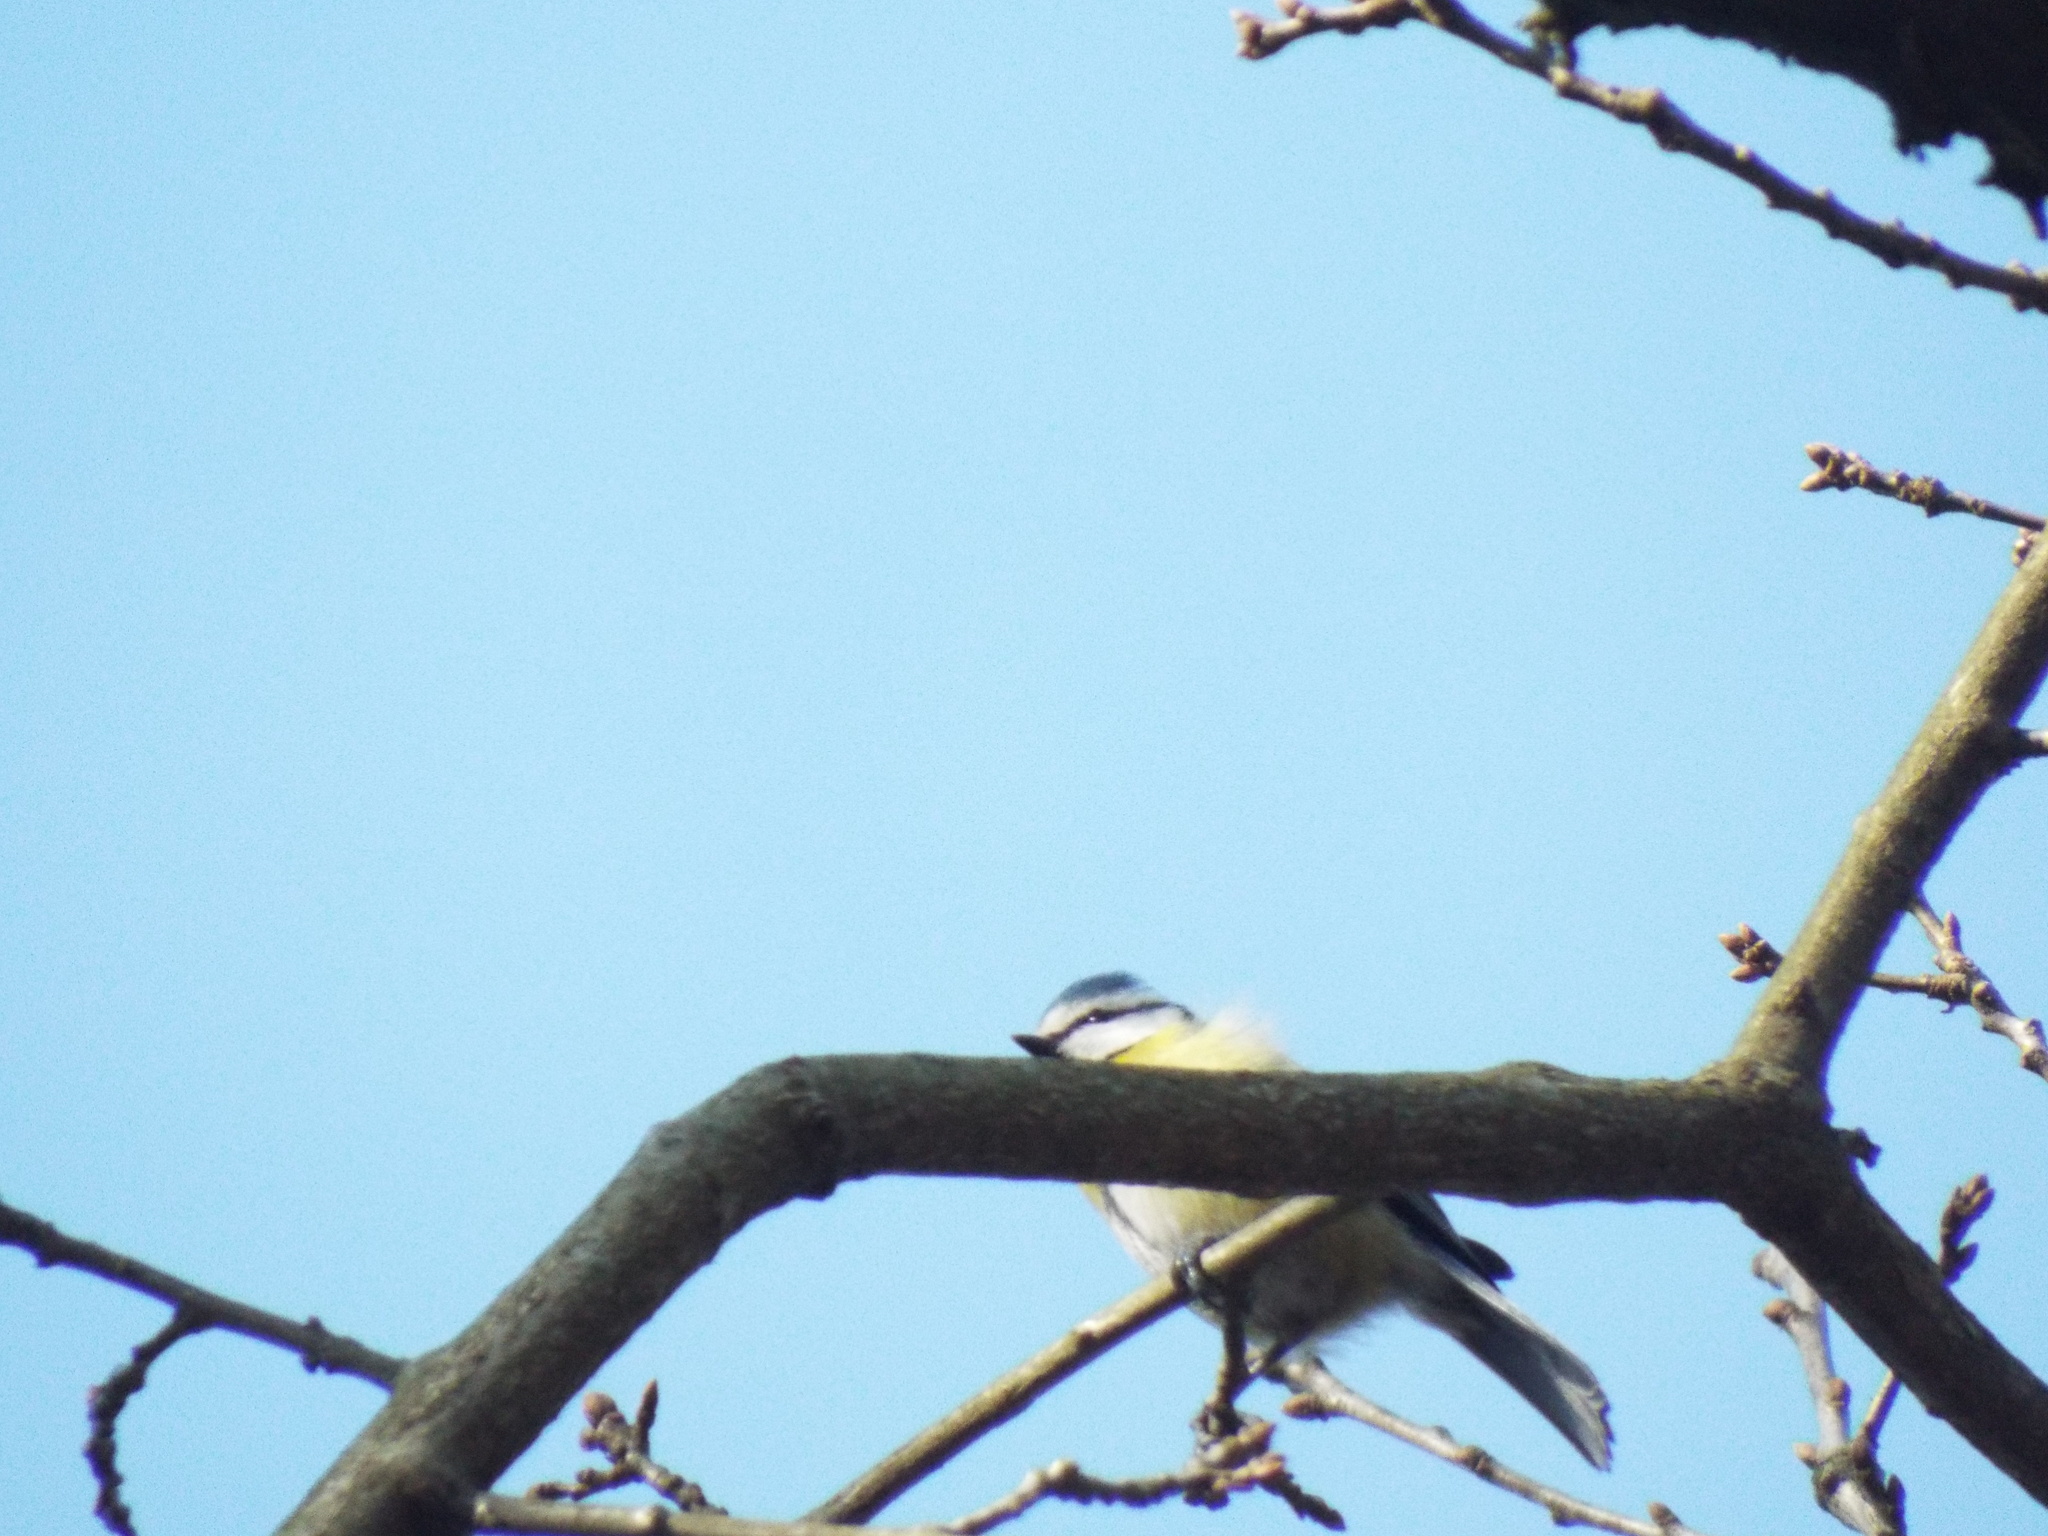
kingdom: Animalia
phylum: Chordata
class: Aves
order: Passeriformes
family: Paridae
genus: Cyanistes
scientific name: Cyanistes caeruleus
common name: Eurasian blue tit
